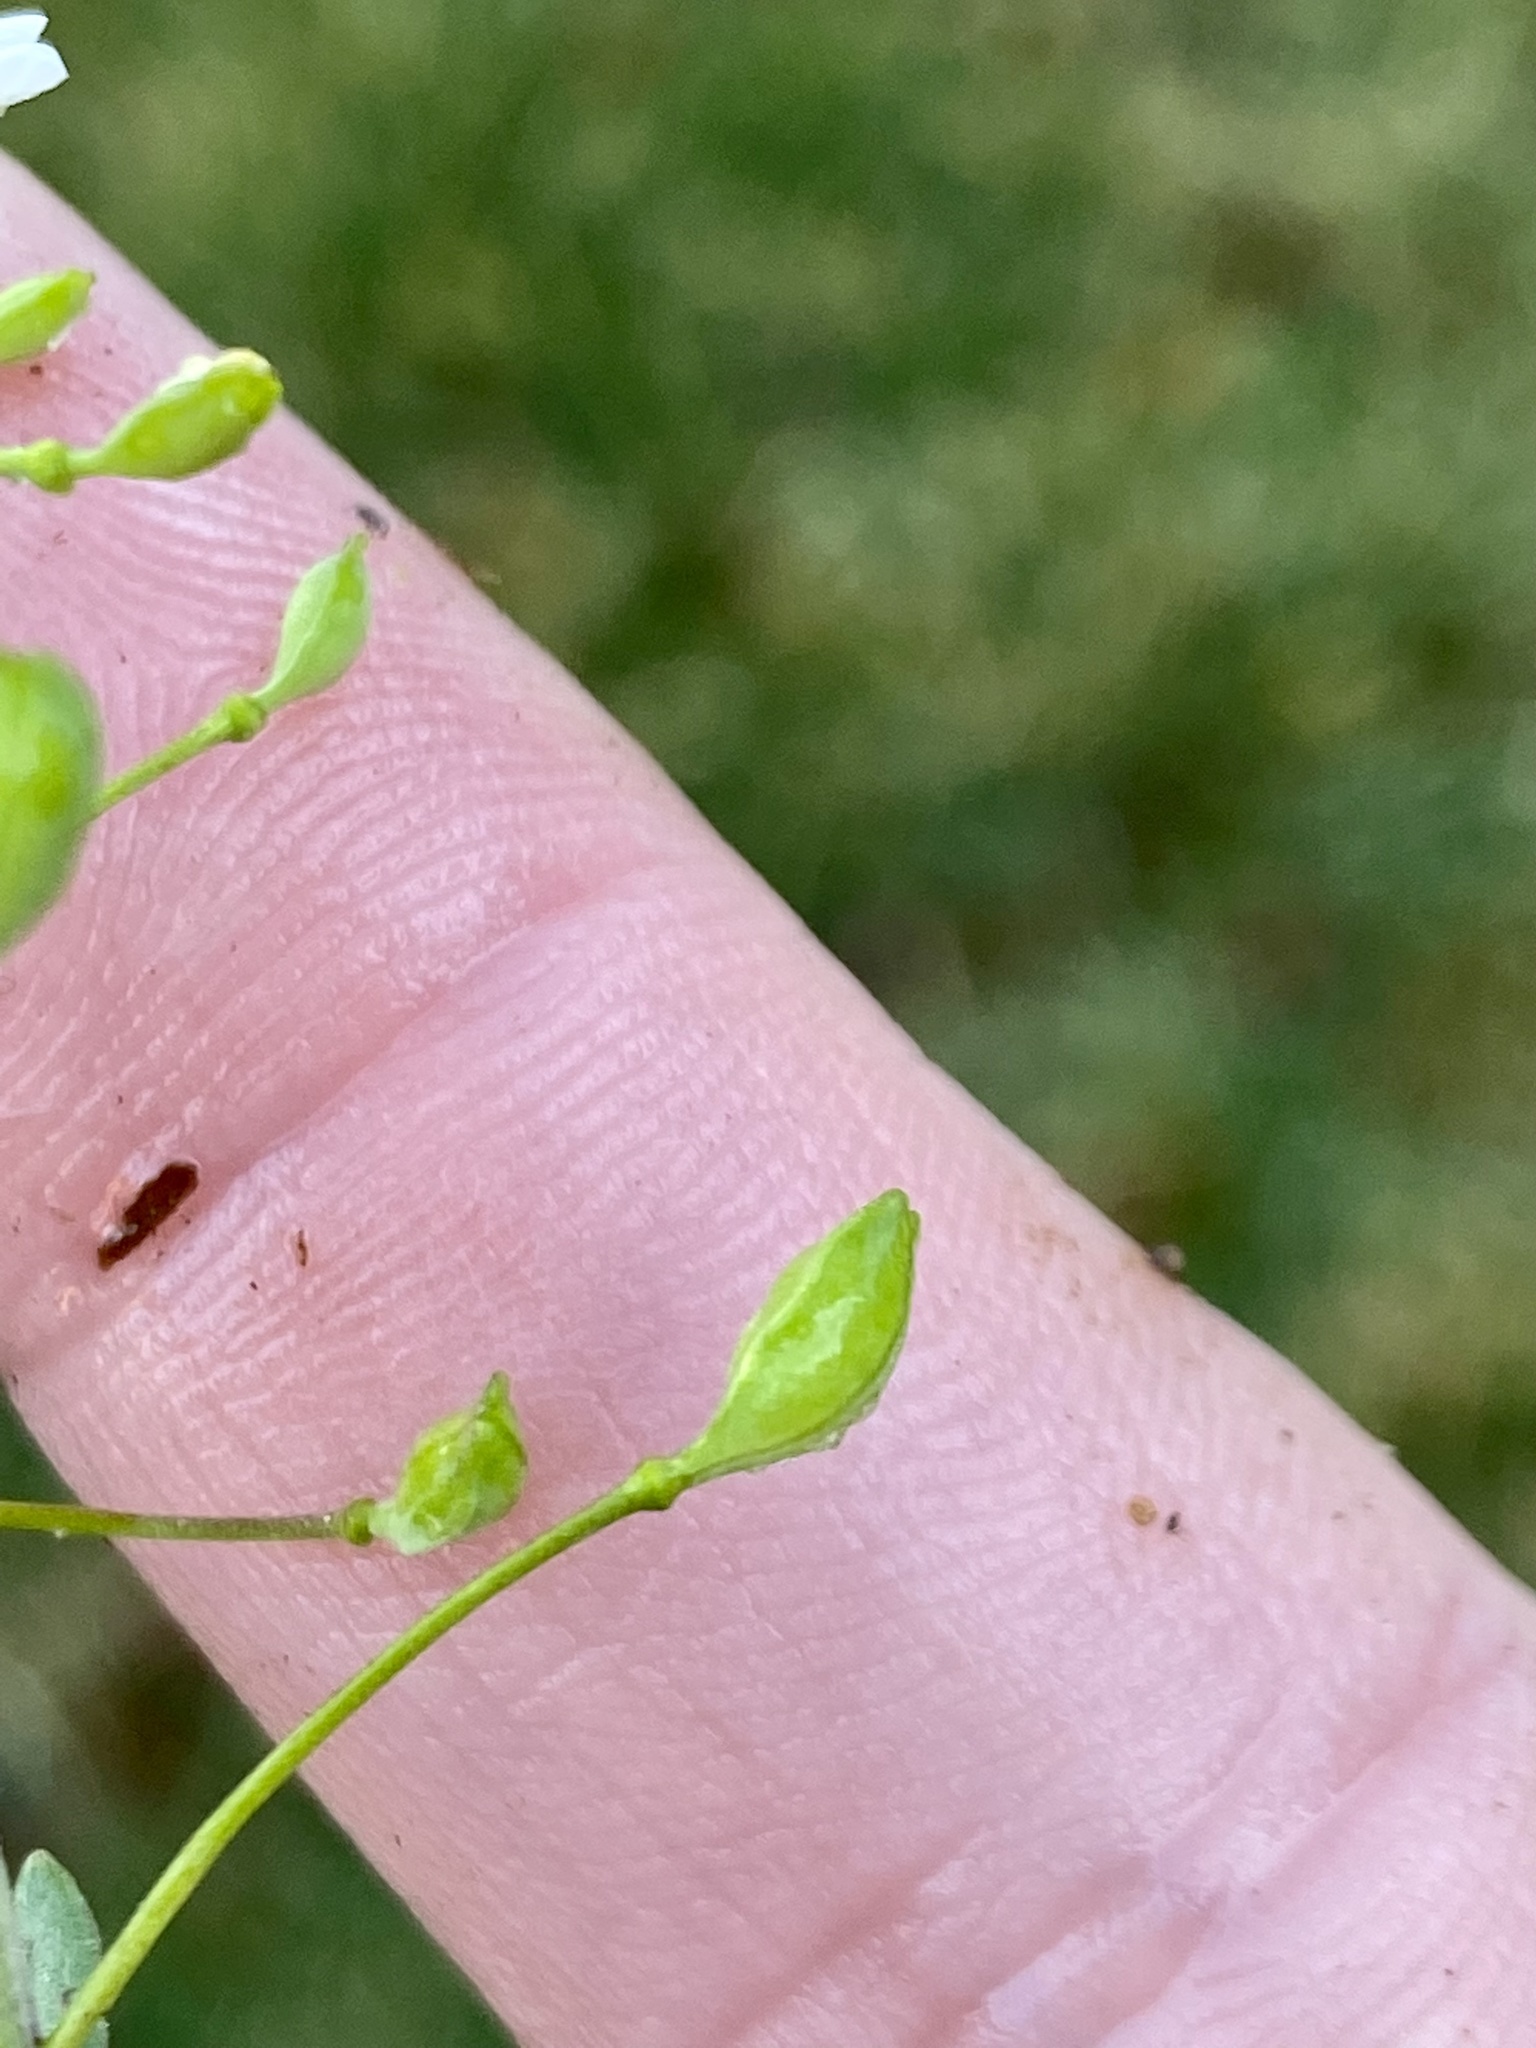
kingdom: Plantae
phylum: Tracheophyta
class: Magnoliopsida
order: Brassicales
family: Brassicaceae
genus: Mummenhoffia
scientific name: Mummenhoffia alliacea
